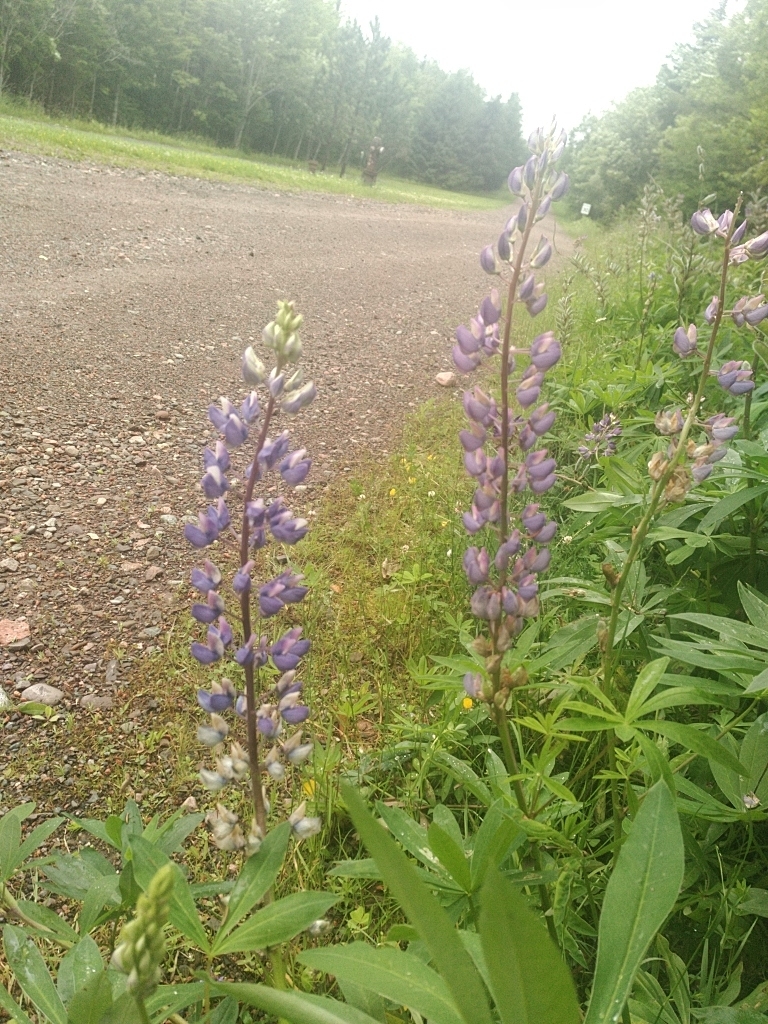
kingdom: Plantae
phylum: Tracheophyta
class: Magnoliopsida
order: Fabales
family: Fabaceae
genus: Lupinus
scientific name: Lupinus polyphyllus
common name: Garden lupin
